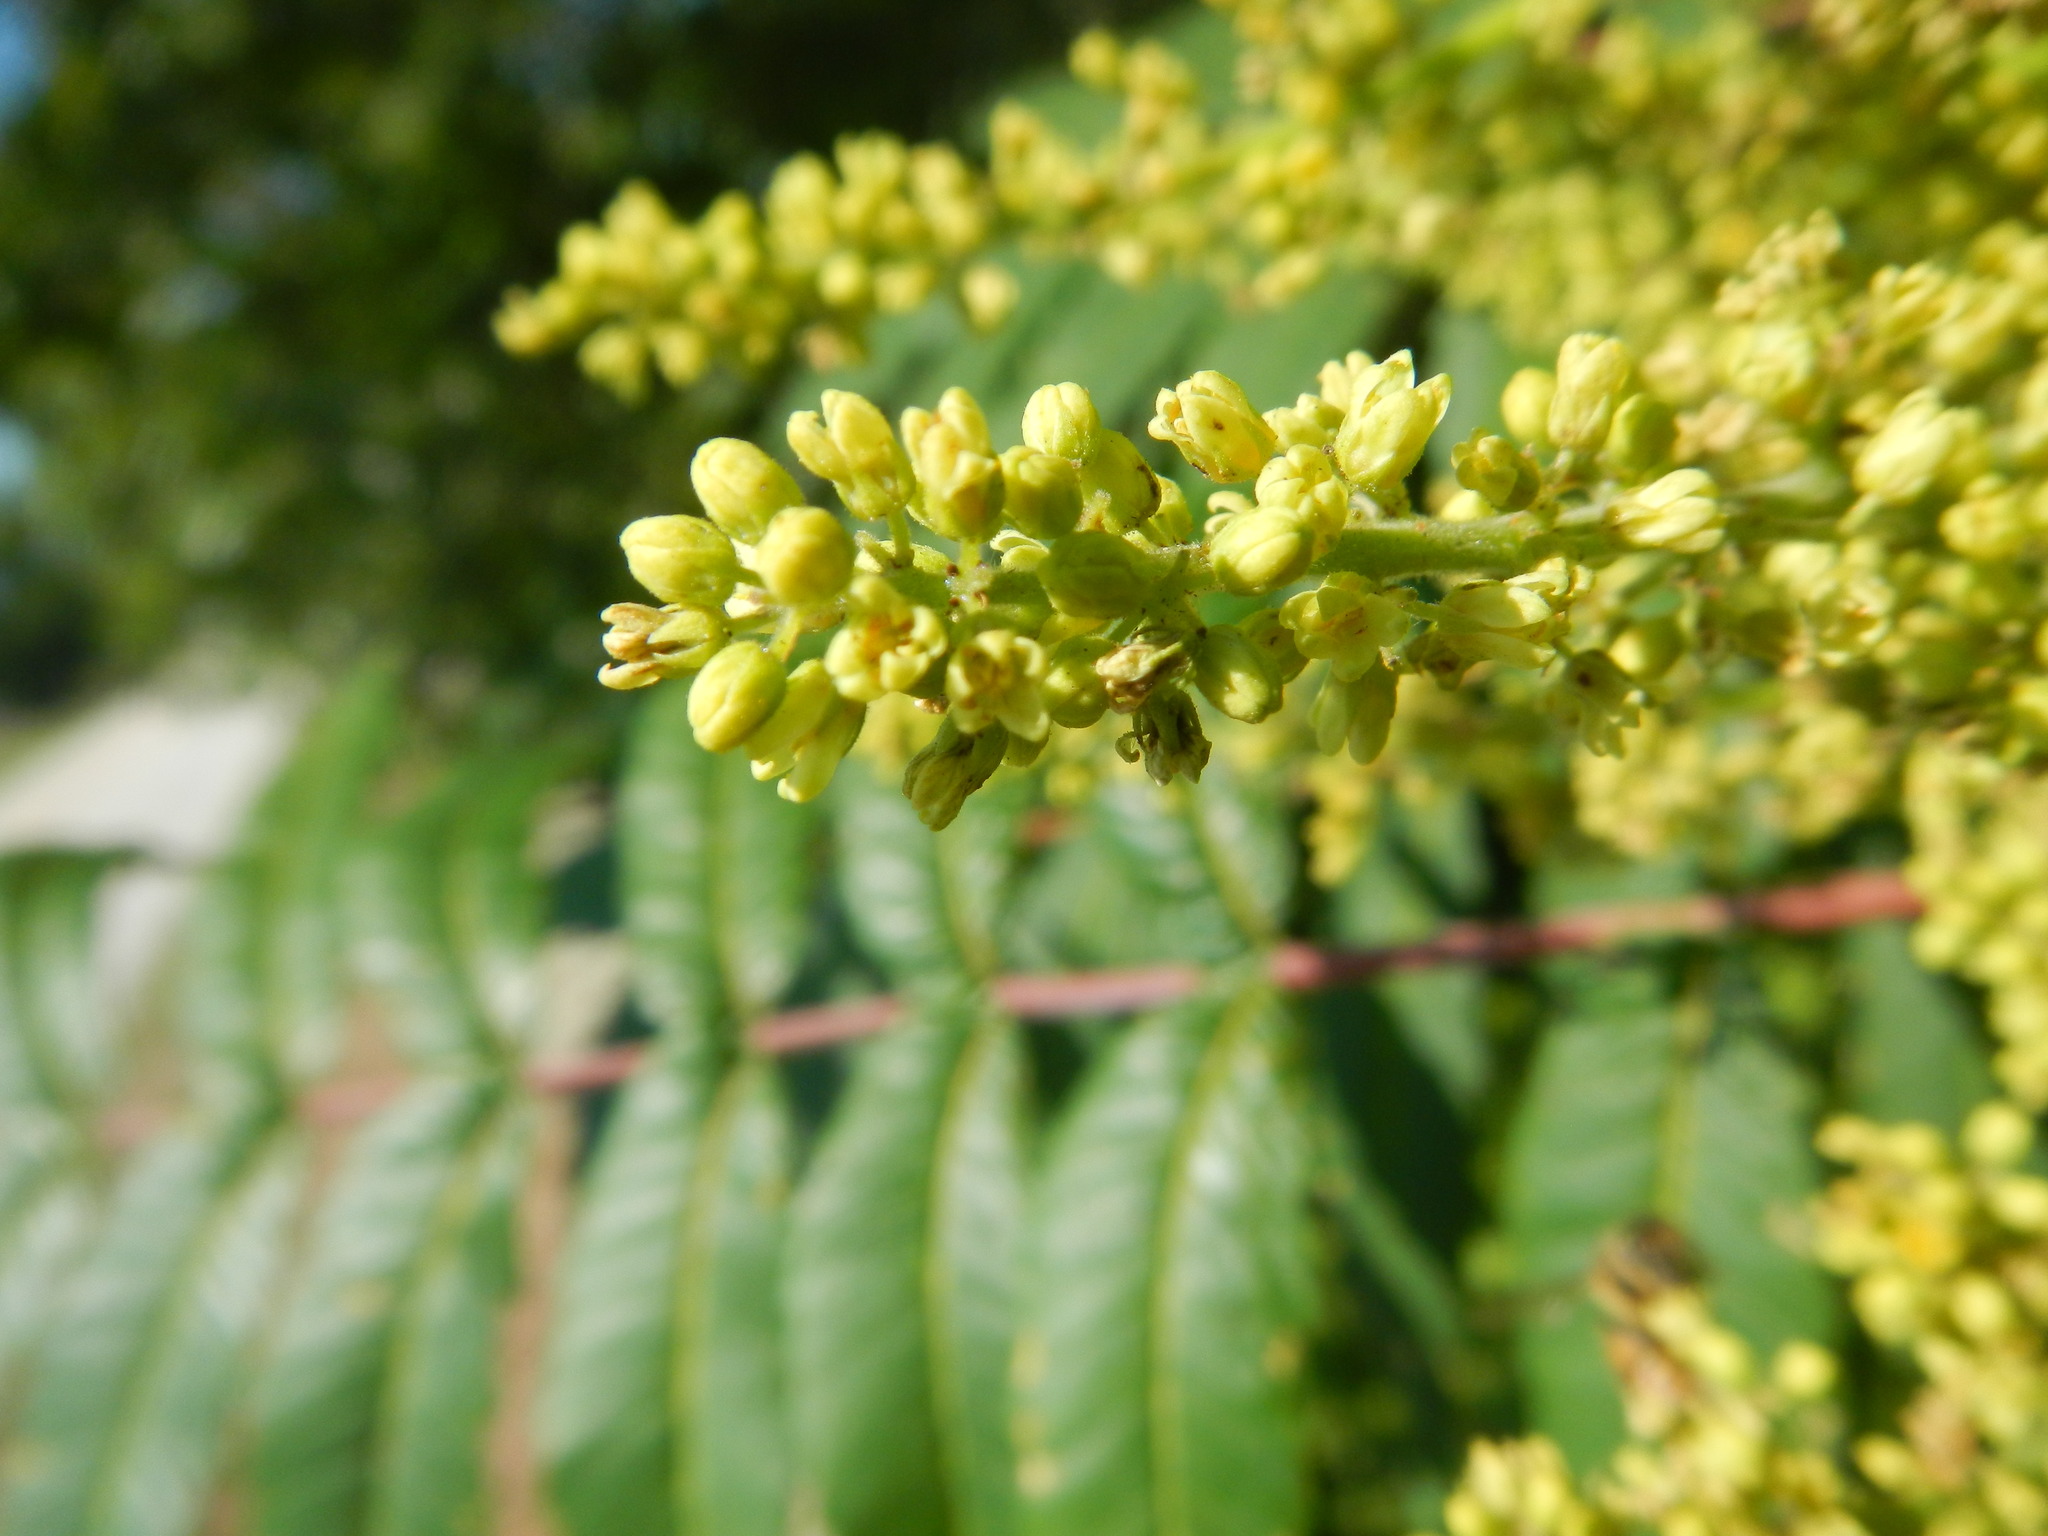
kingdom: Plantae
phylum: Tracheophyta
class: Magnoliopsida
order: Sapindales
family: Anacardiaceae
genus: Rhus
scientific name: Rhus glabra
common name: Scarlet sumac
